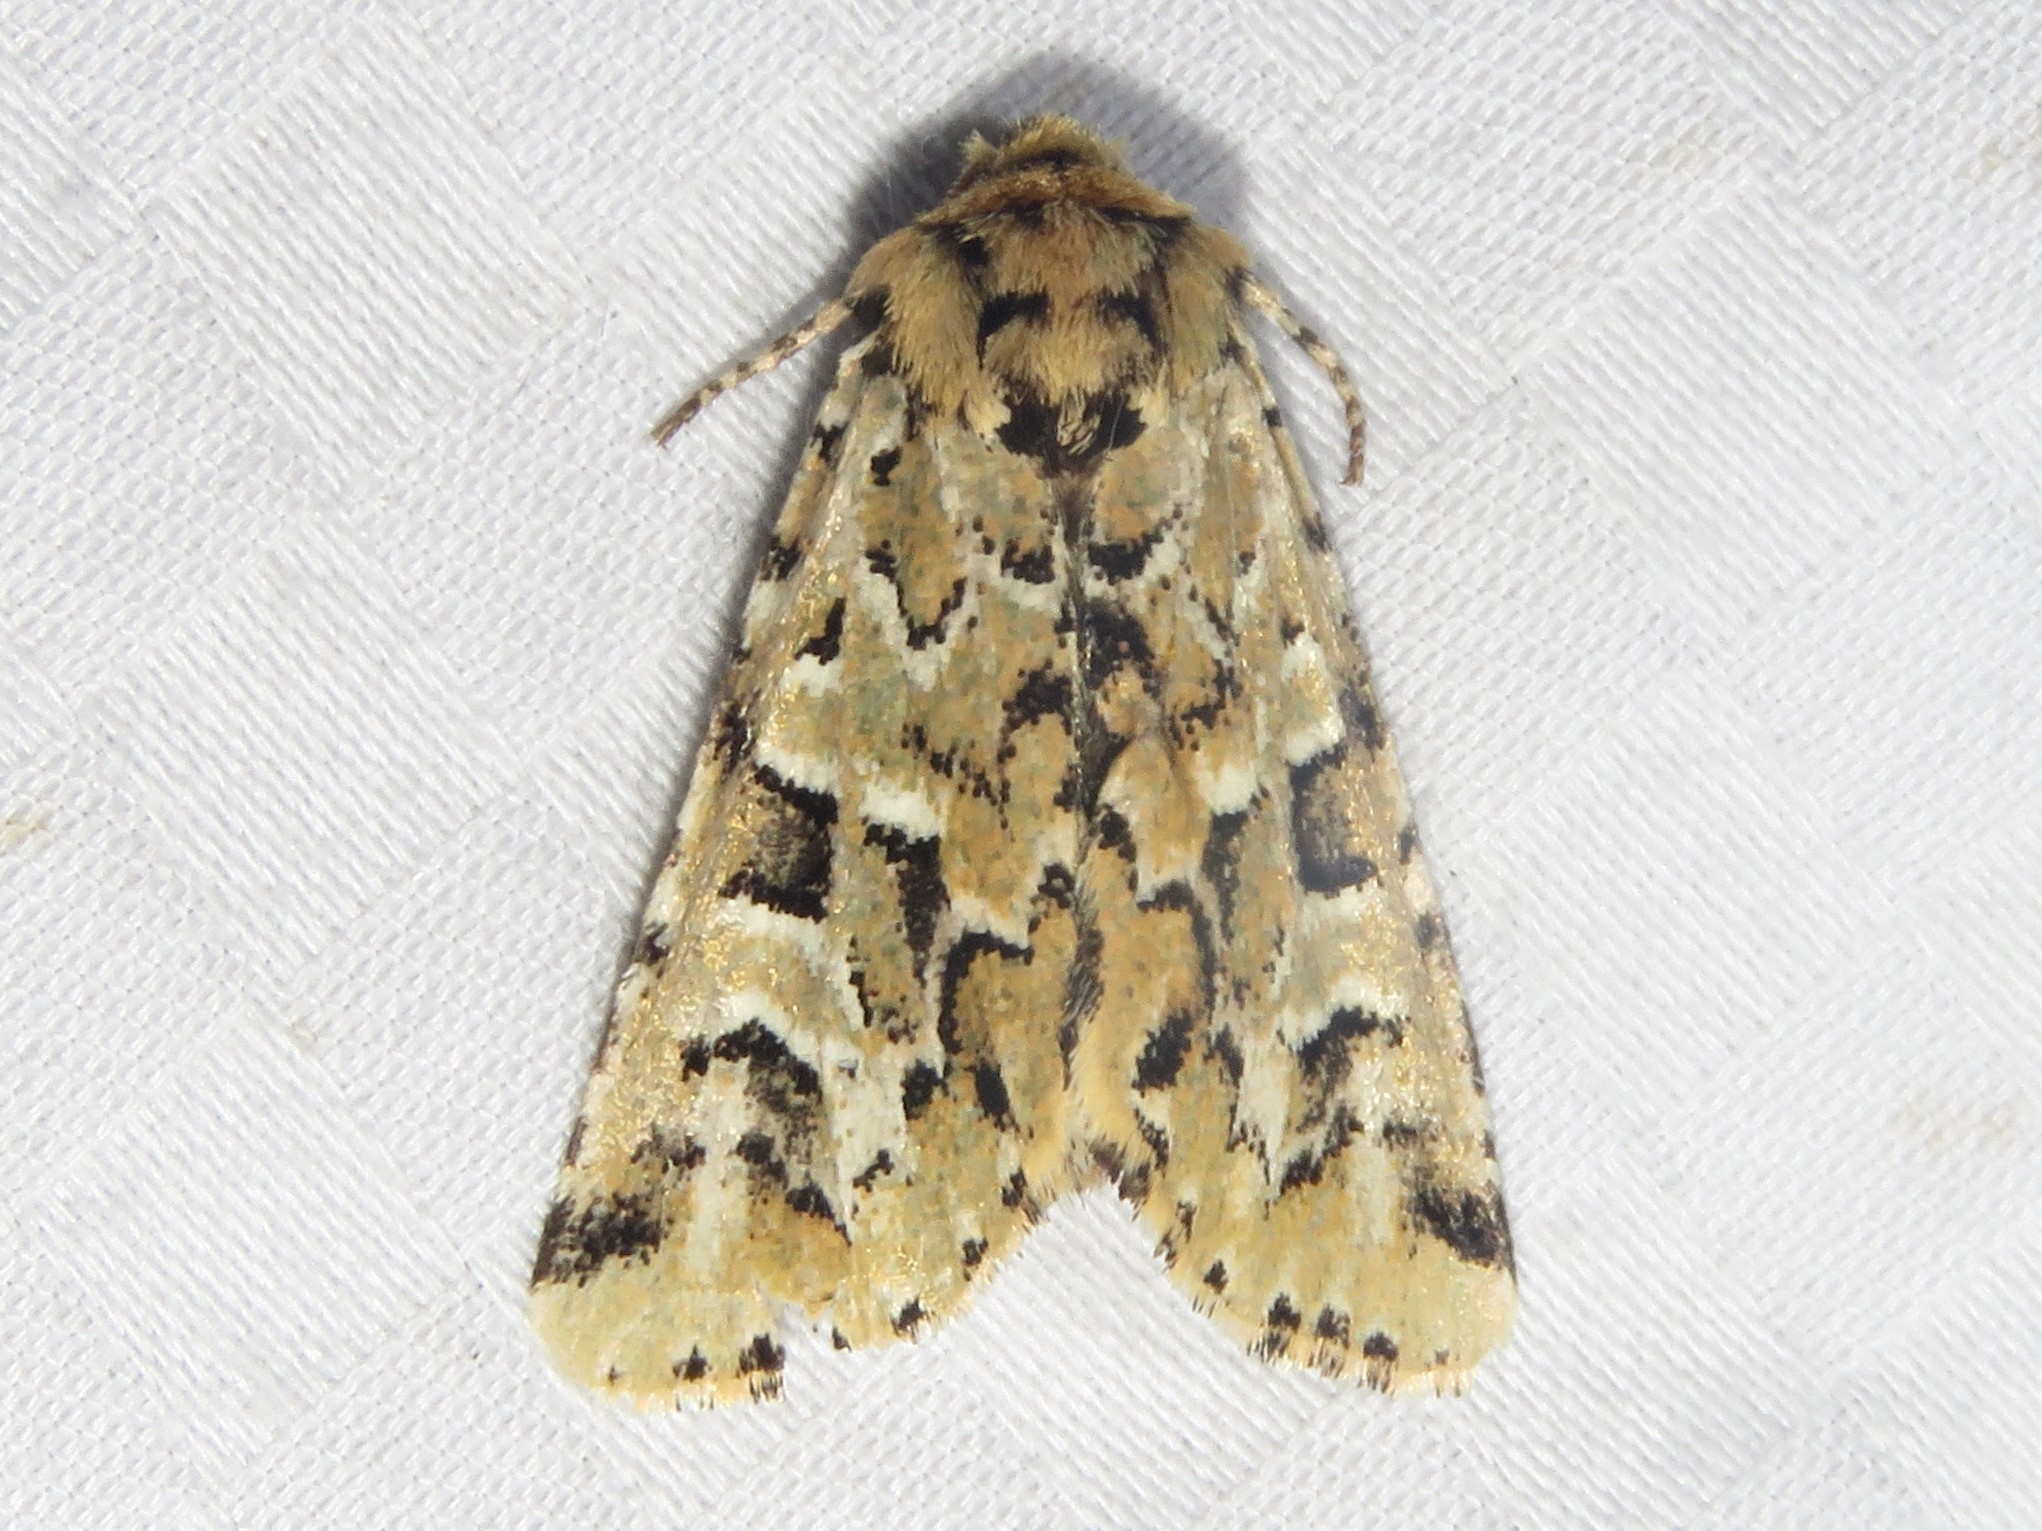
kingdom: Animalia
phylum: Arthropoda
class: Insecta
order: Lepidoptera
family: Noctuidae
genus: Feralia
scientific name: Feralia comstocki
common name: Comstock's sallow
